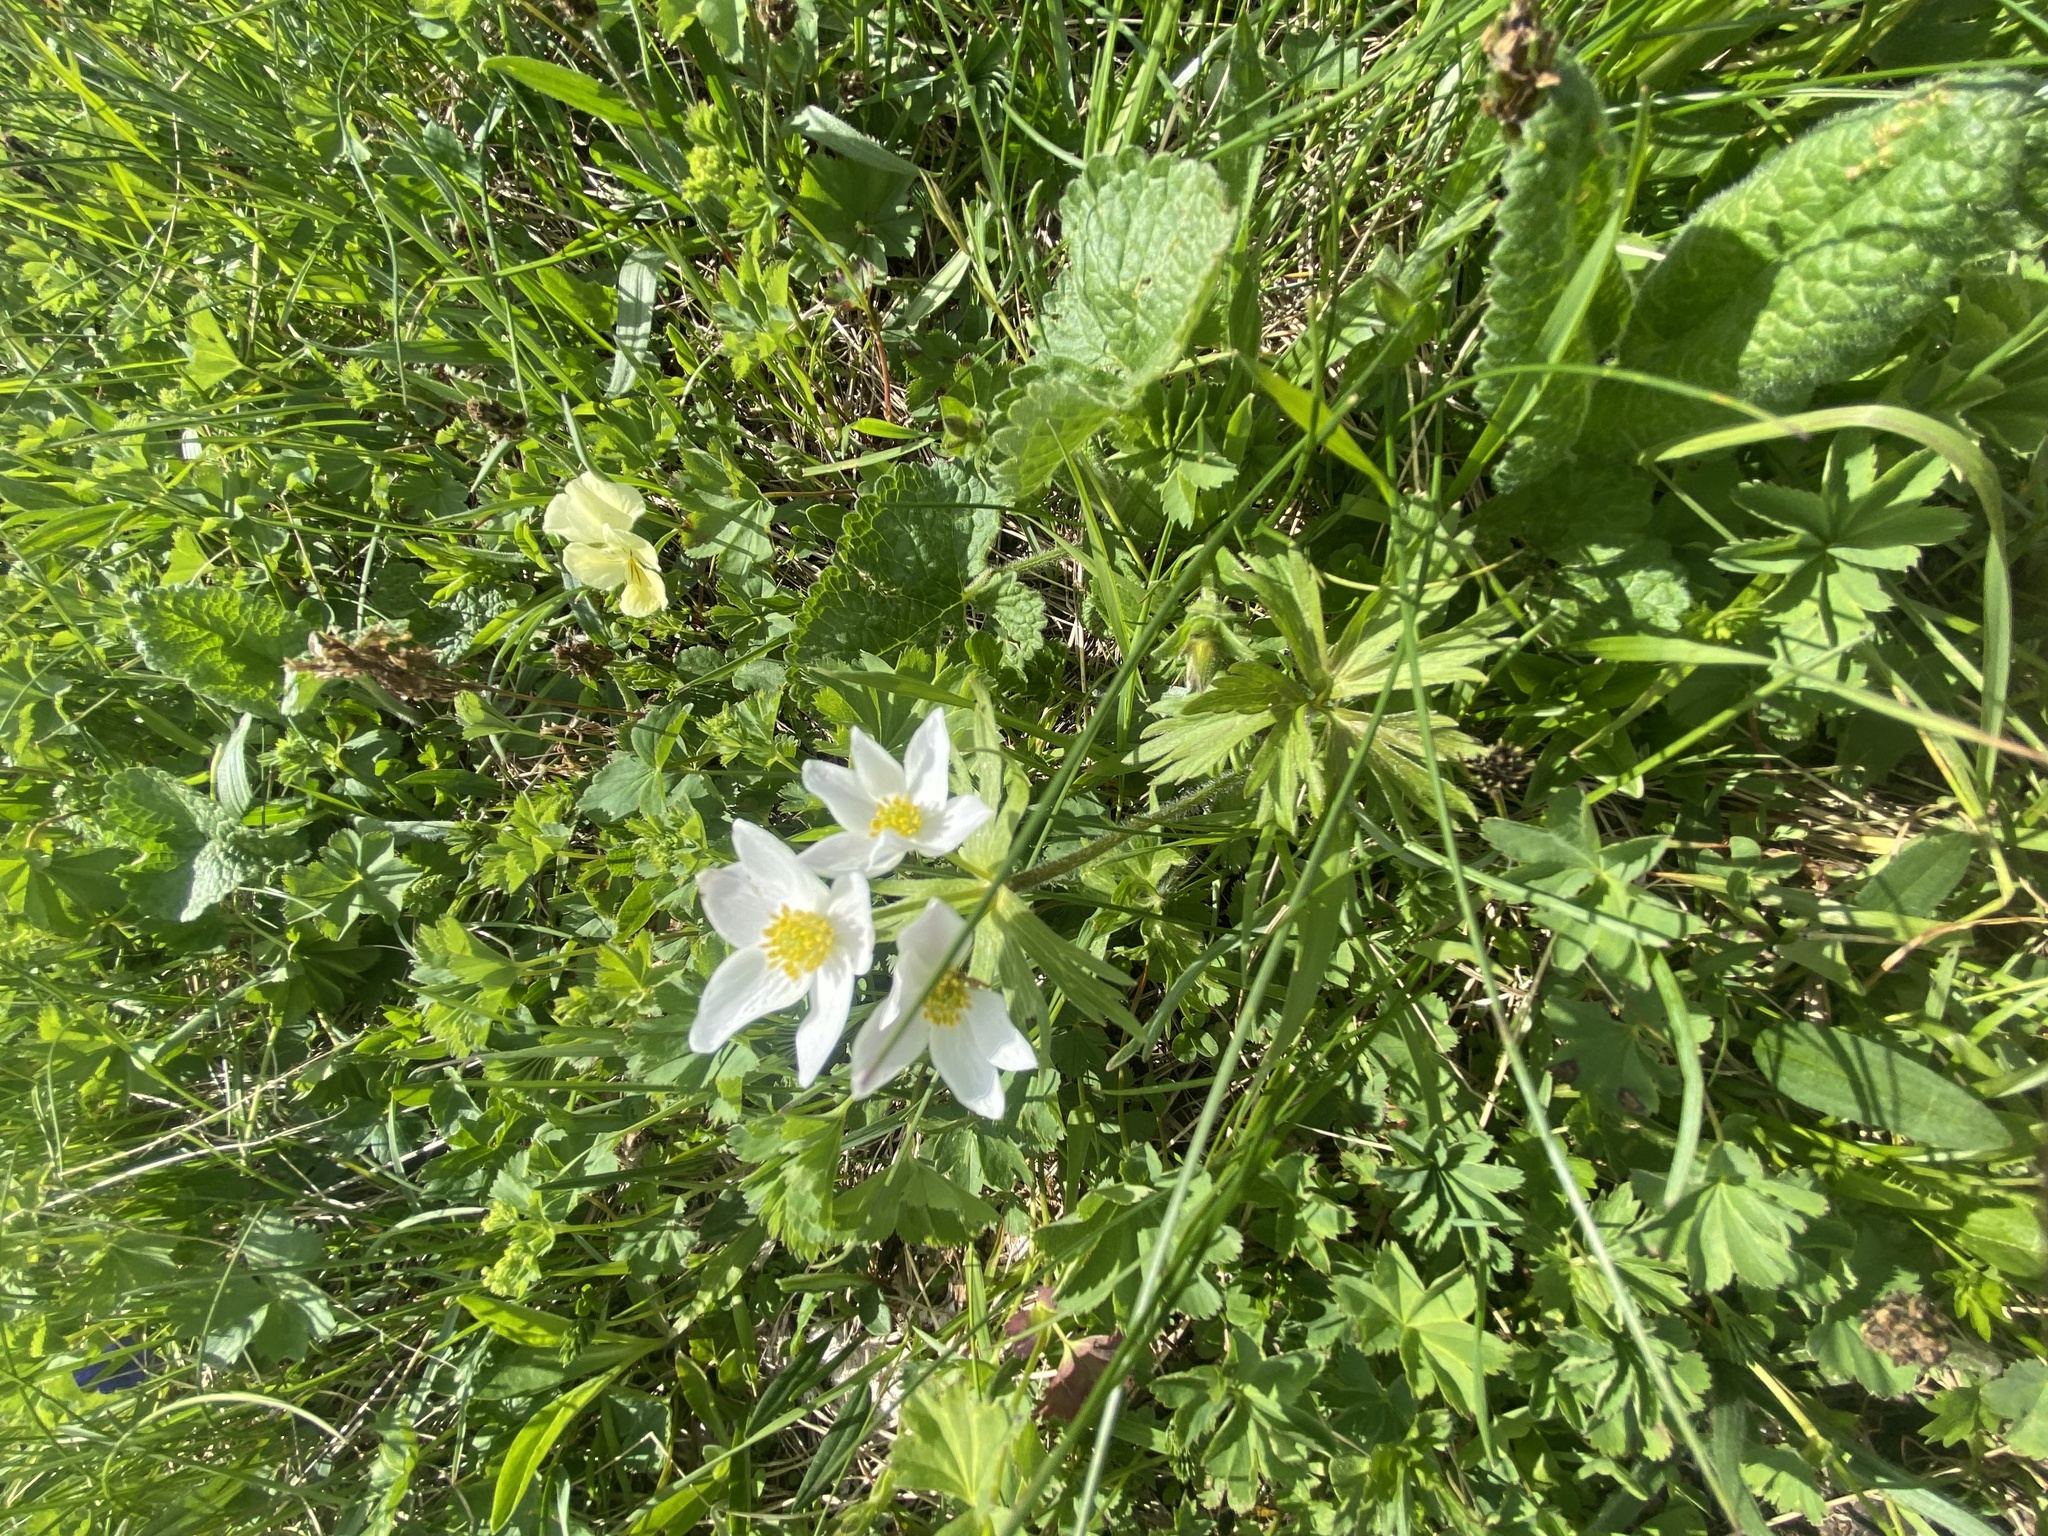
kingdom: Plantae
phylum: Tracheophyta
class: Magnoliopsida
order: Ranunculales
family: Ranunculaceae
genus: Anemonastrum
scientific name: Anemonastrum narcissiflorum
